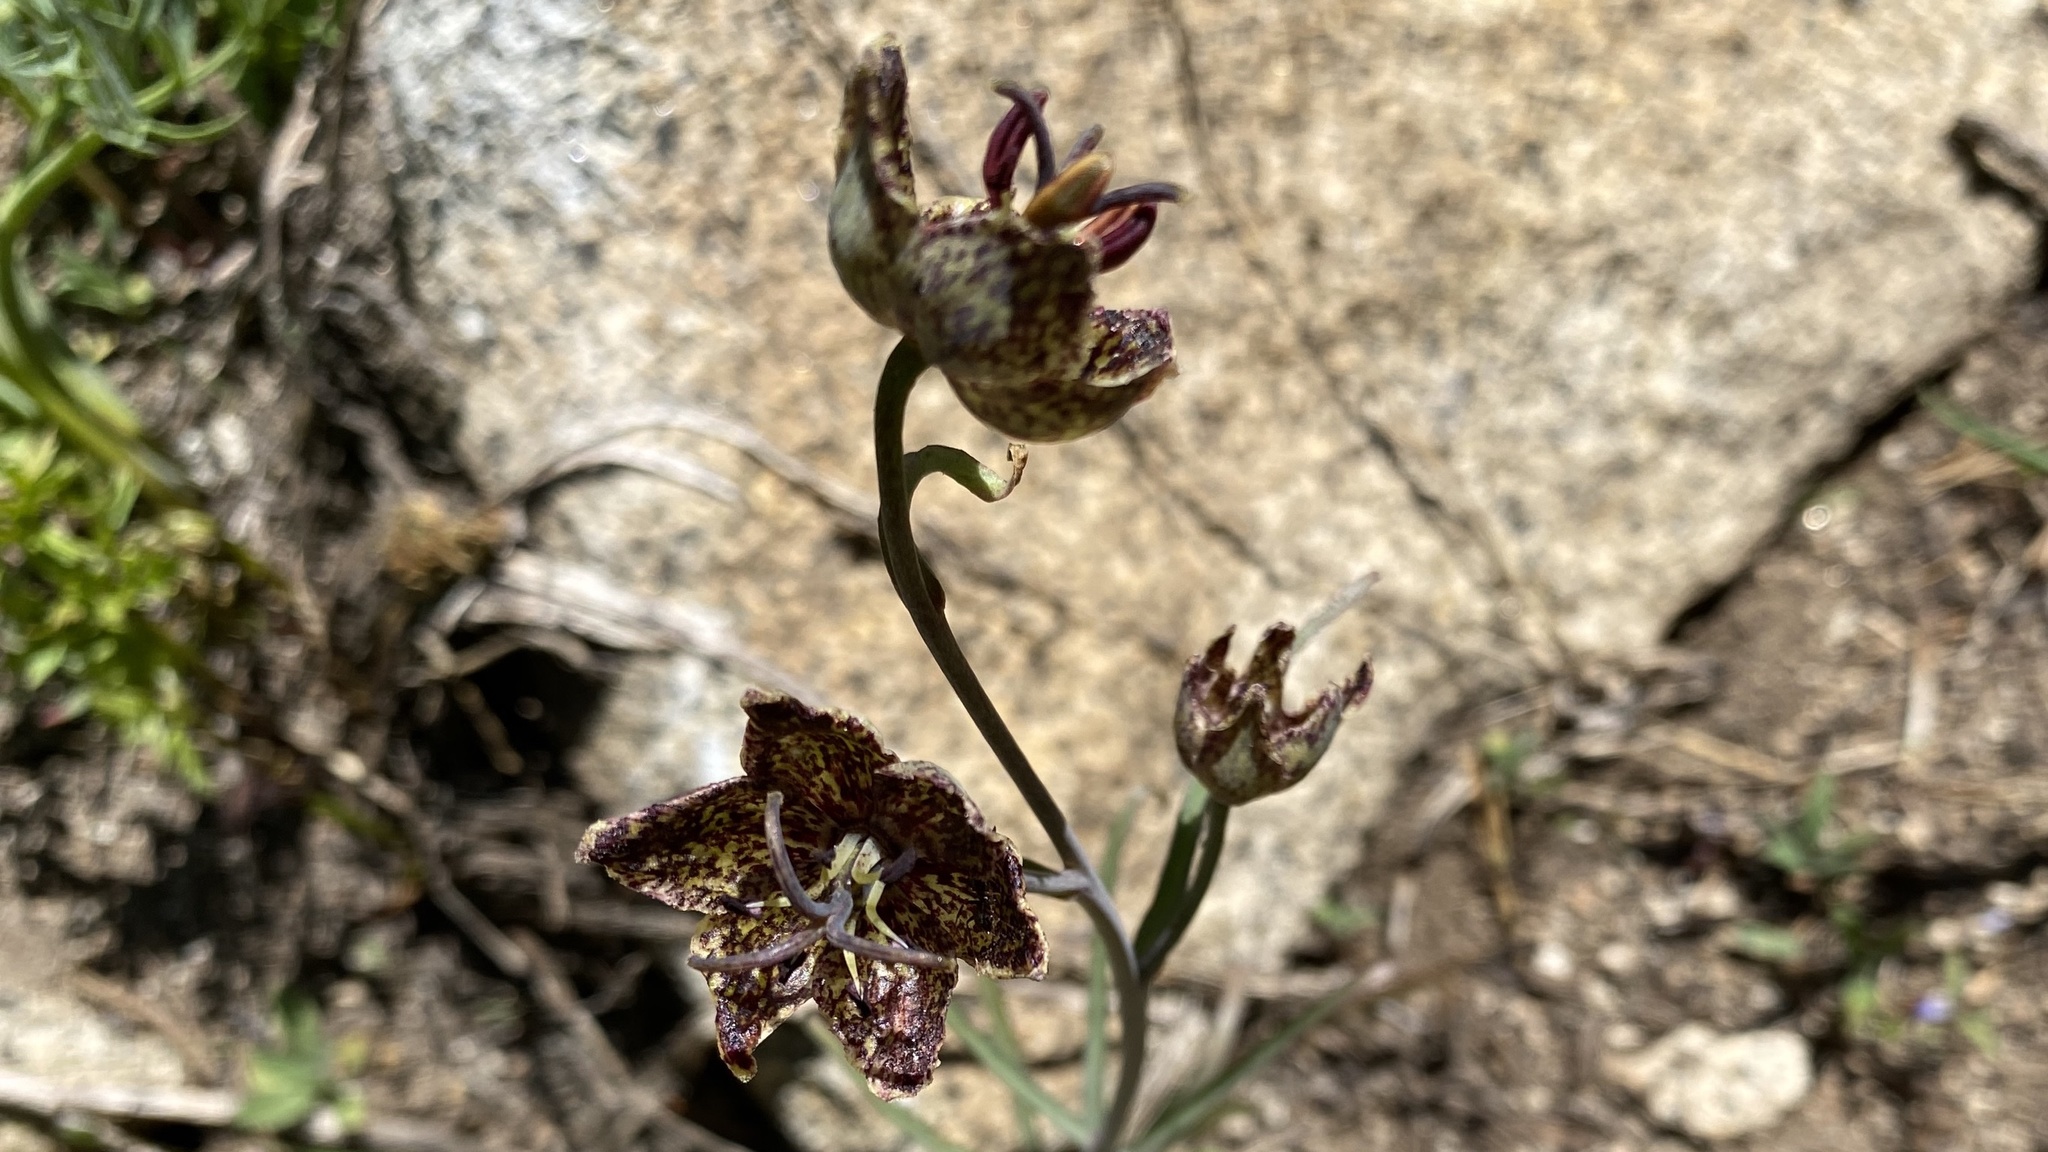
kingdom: Plantae
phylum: Tracheophyta
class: Liliopsida
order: Liliales
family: Liliaceae
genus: Fritillaria
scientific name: Fritillaria pinetorum
